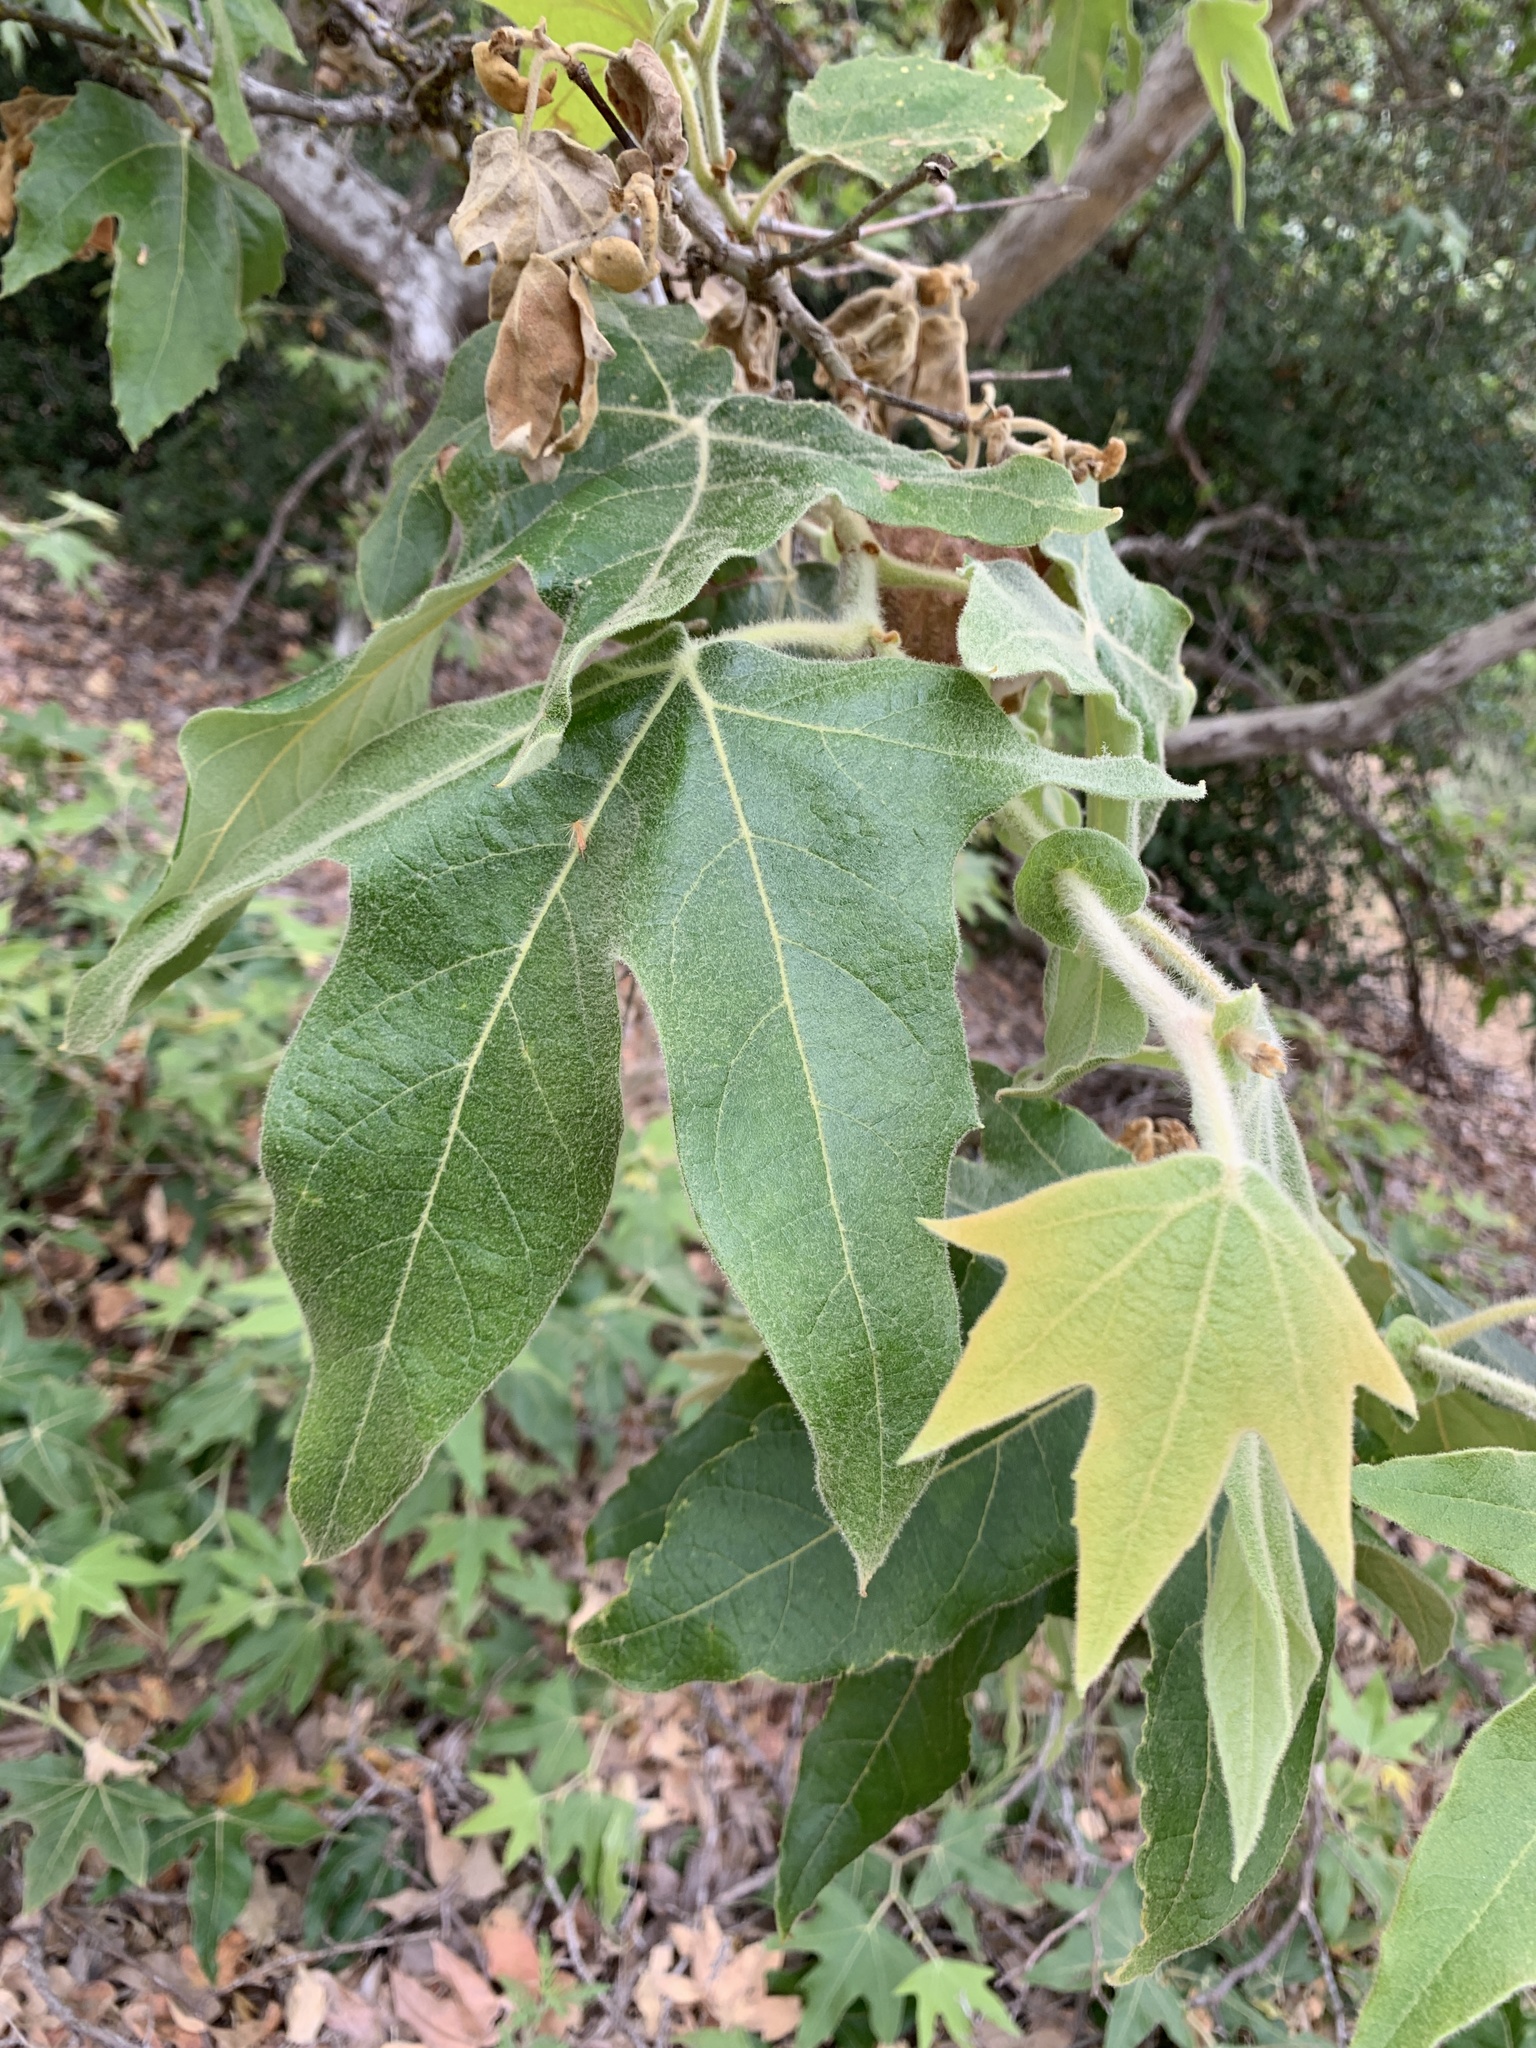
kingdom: Plantae
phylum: Tracheophyta
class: Magnoliopsida
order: Proteales
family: Platanaceae
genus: Platanus
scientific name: Platanus racemosa
